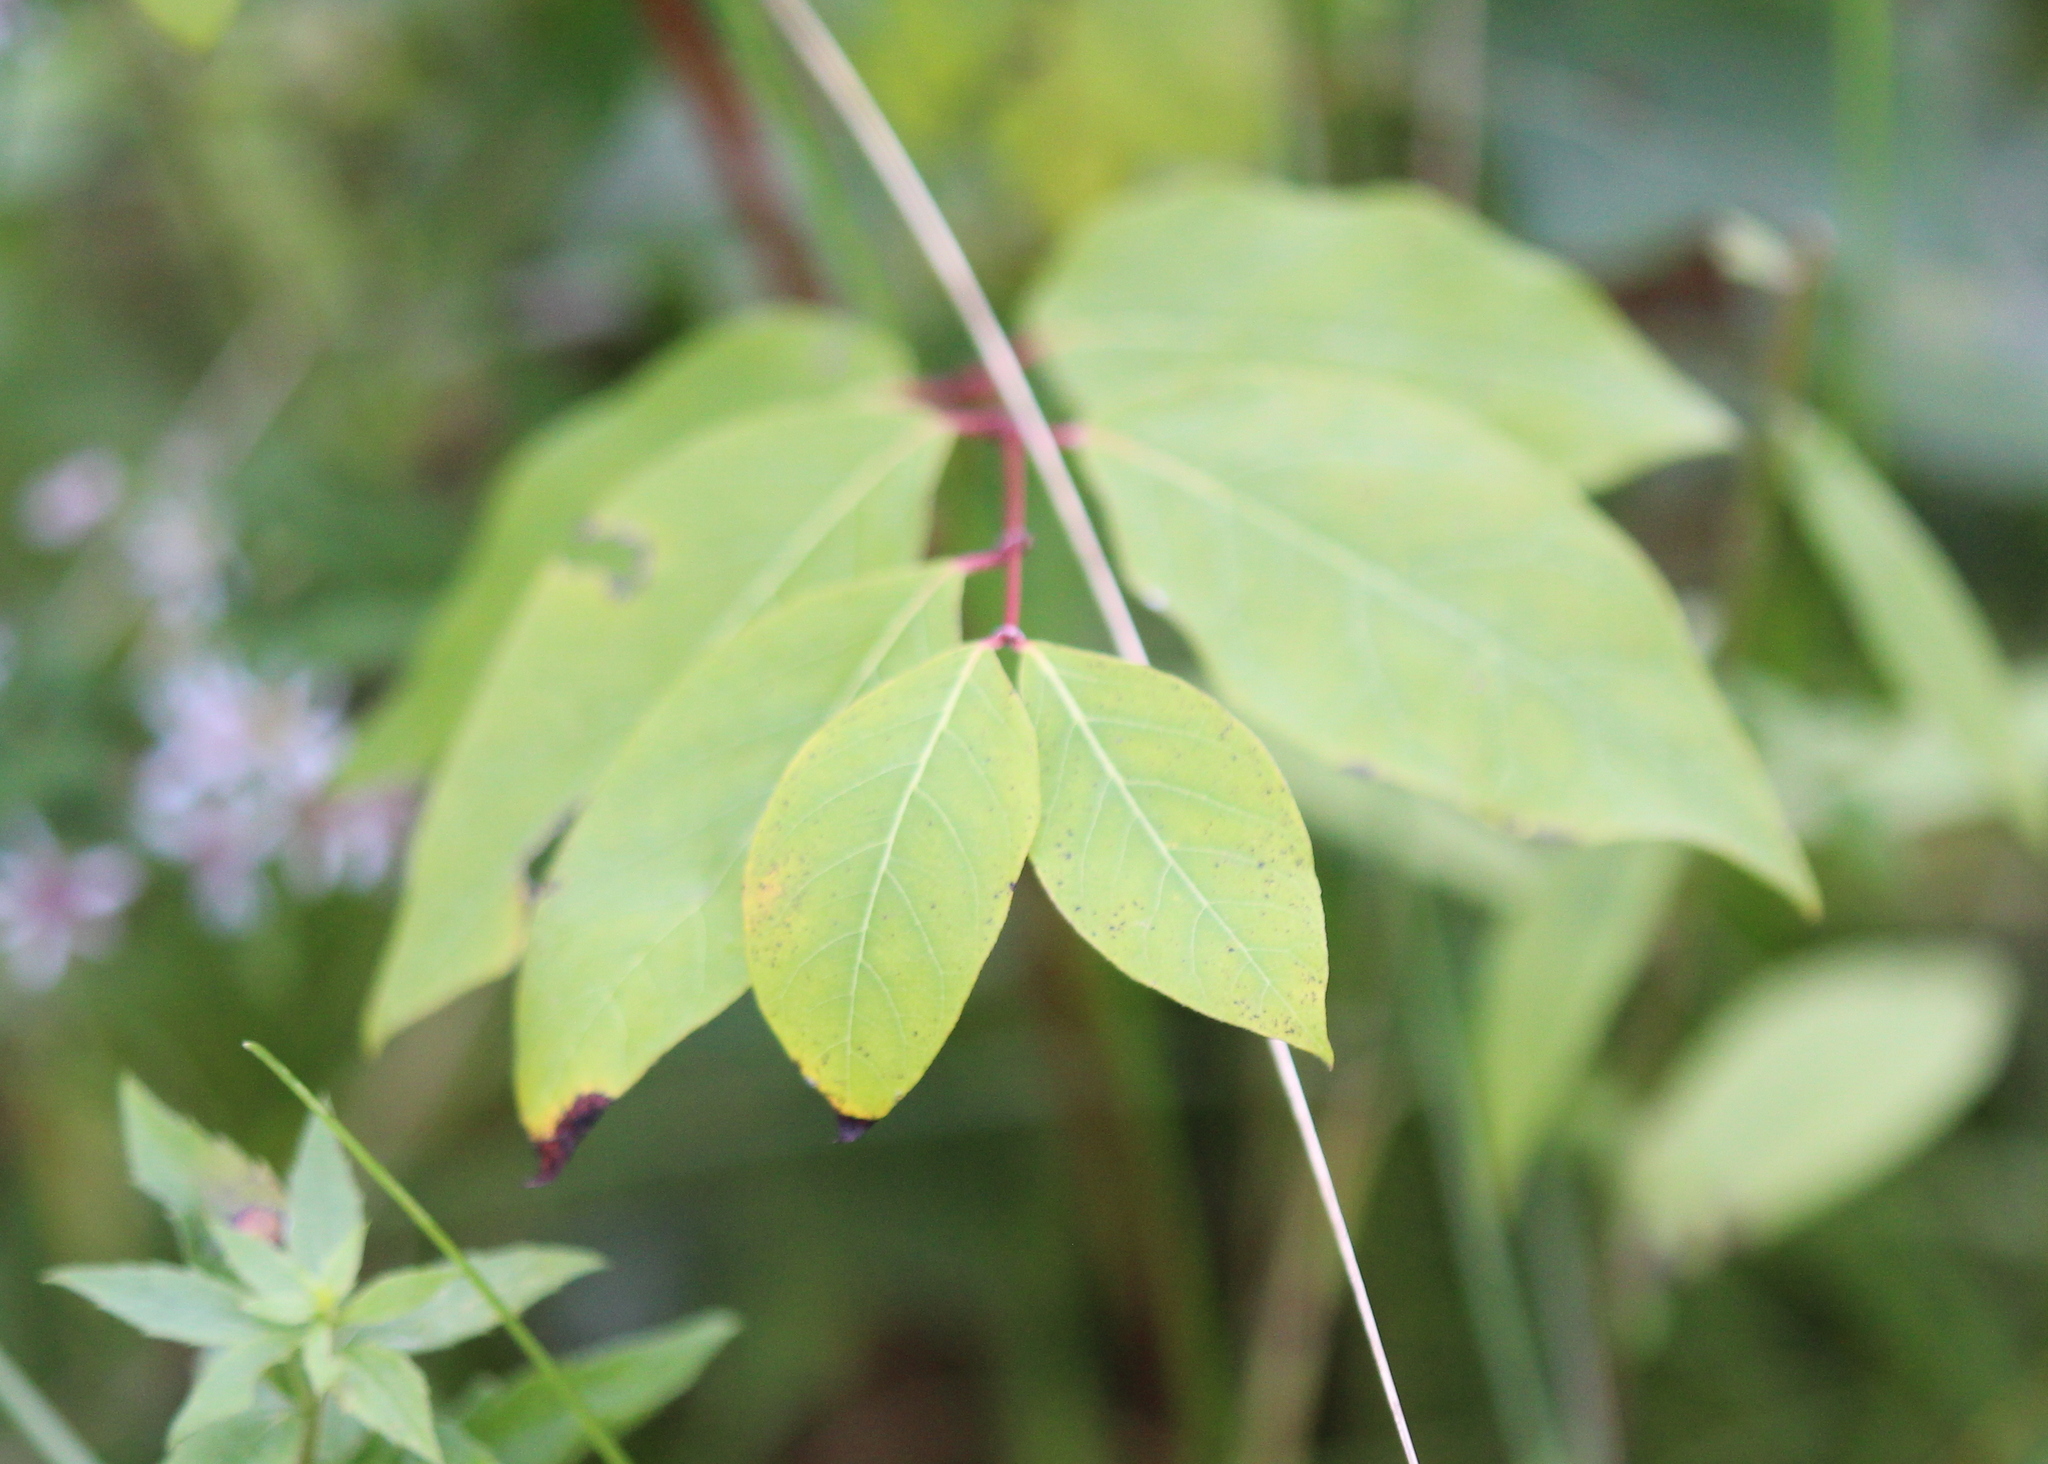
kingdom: Plantae
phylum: Tracheophyta
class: Magnoliopsida
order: Gentianales
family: Apocynaceae
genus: Apocynum
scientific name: Apocynum androsaemifolium
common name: Spreading dogbane
